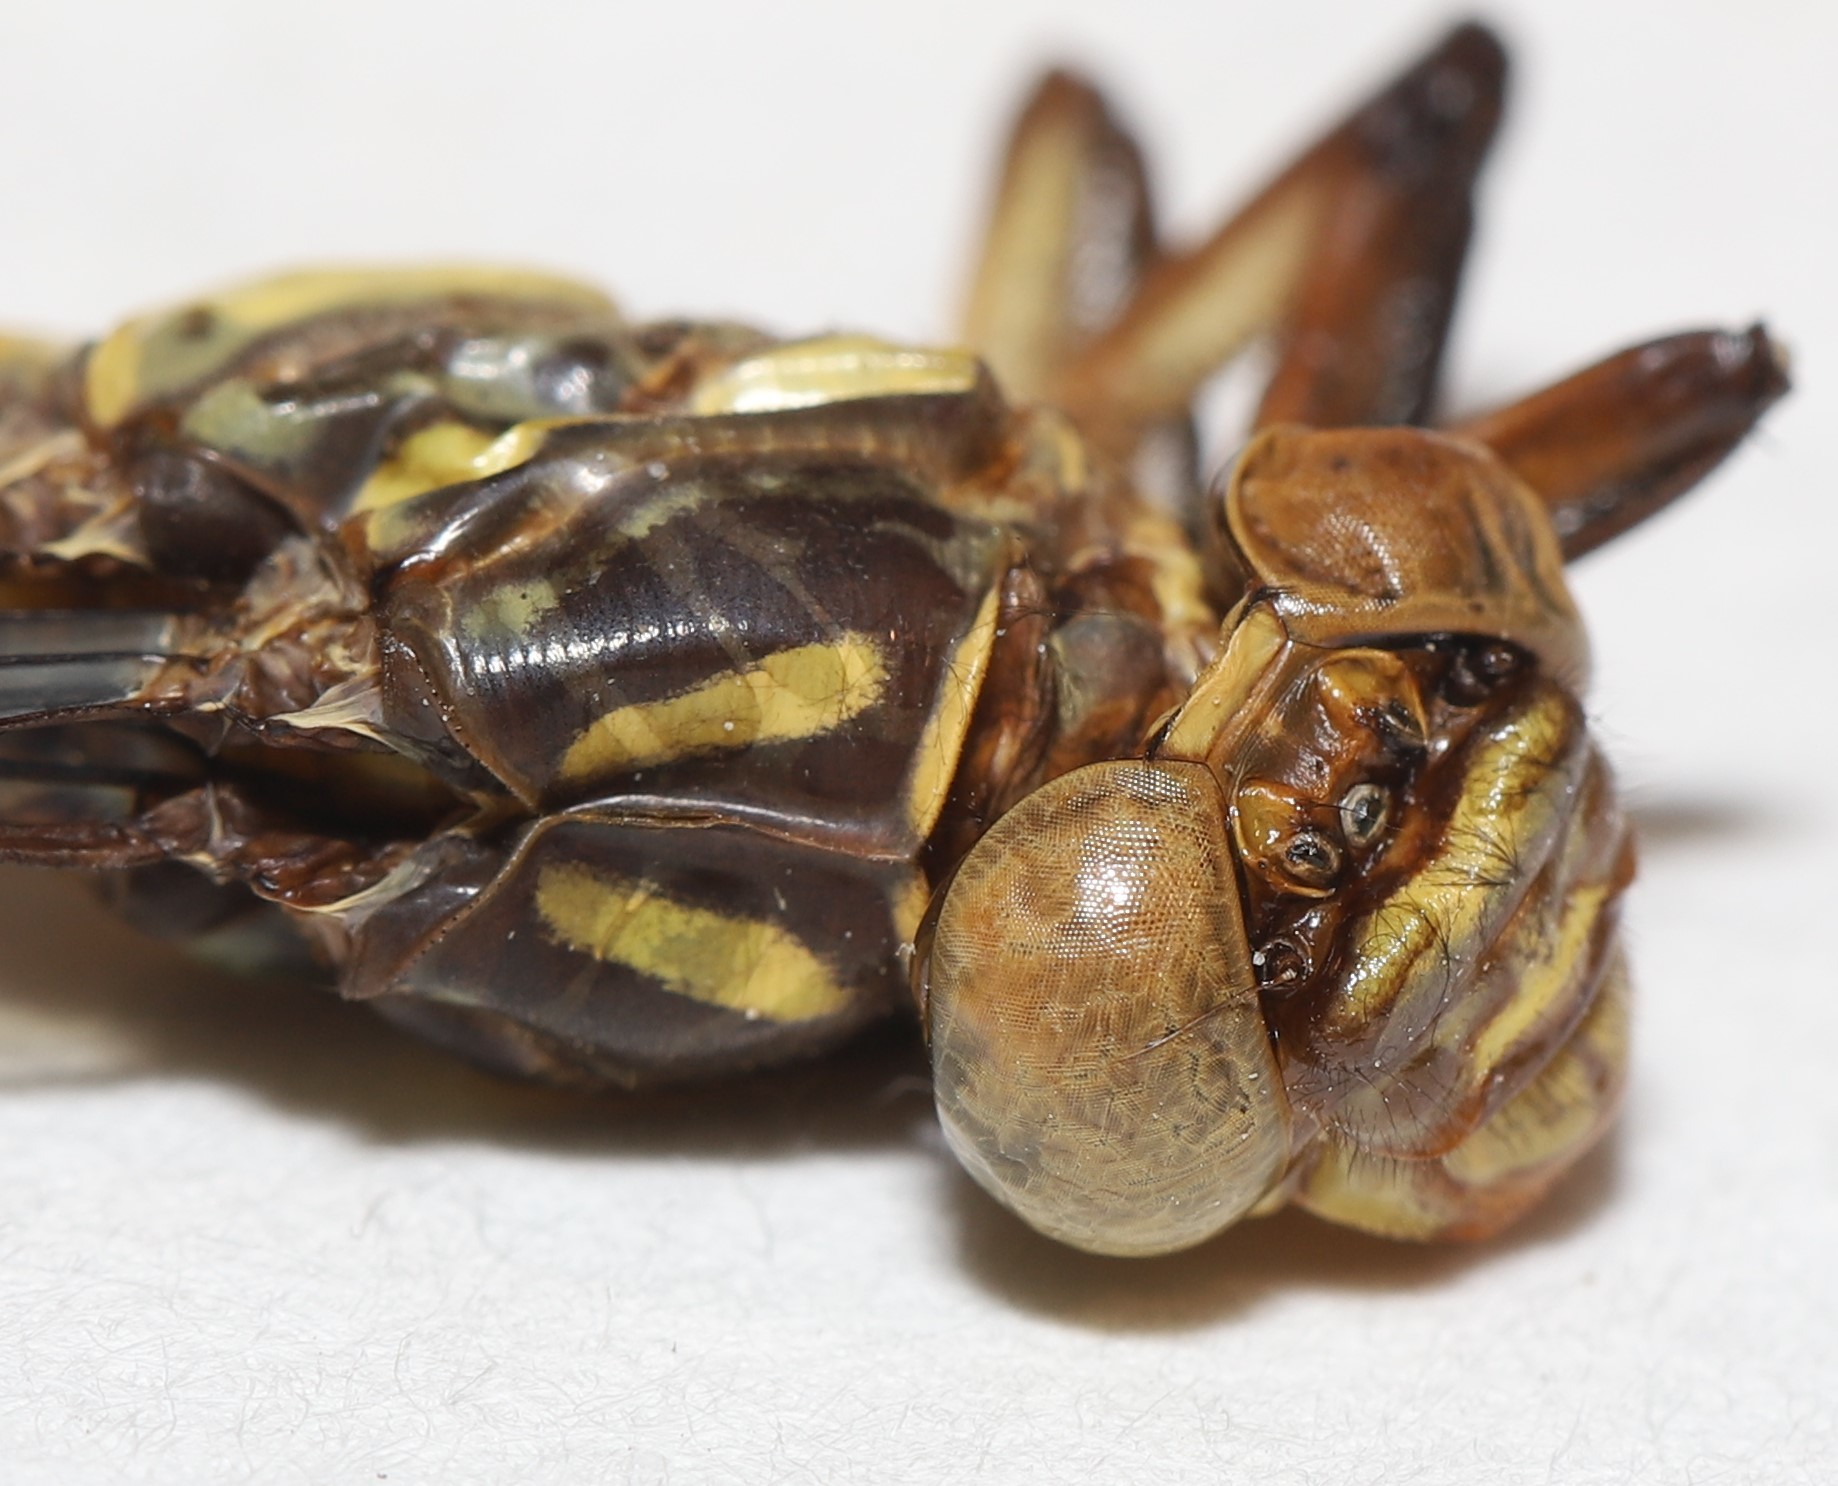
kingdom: Animalia
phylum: Arthropoda
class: Insecta
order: Odonata
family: Gomphidae
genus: Stylurus
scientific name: Stylurus laurae
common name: Laura's clubtail
